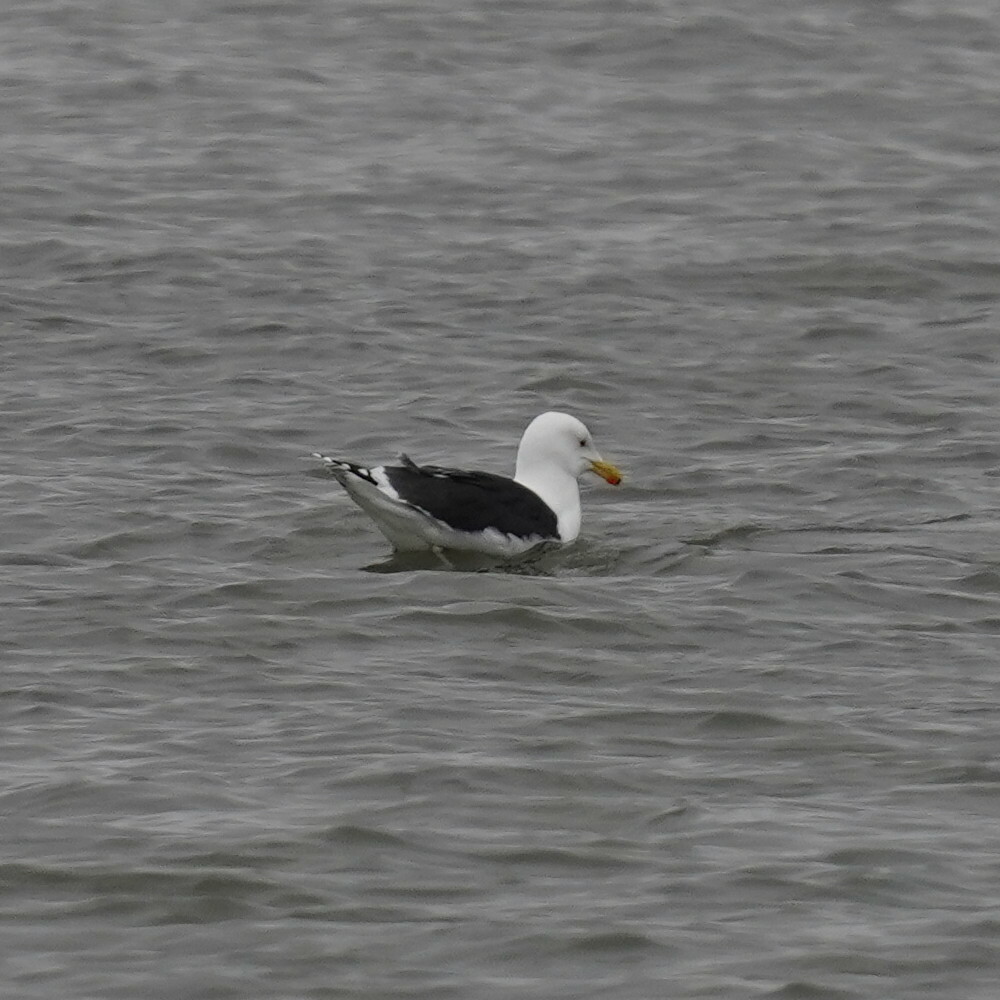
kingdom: Animalia
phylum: Chordata
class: Aves
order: Charadriiformes
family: Laridae
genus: Larus
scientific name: Larus marinus
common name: Great black-backed gull
